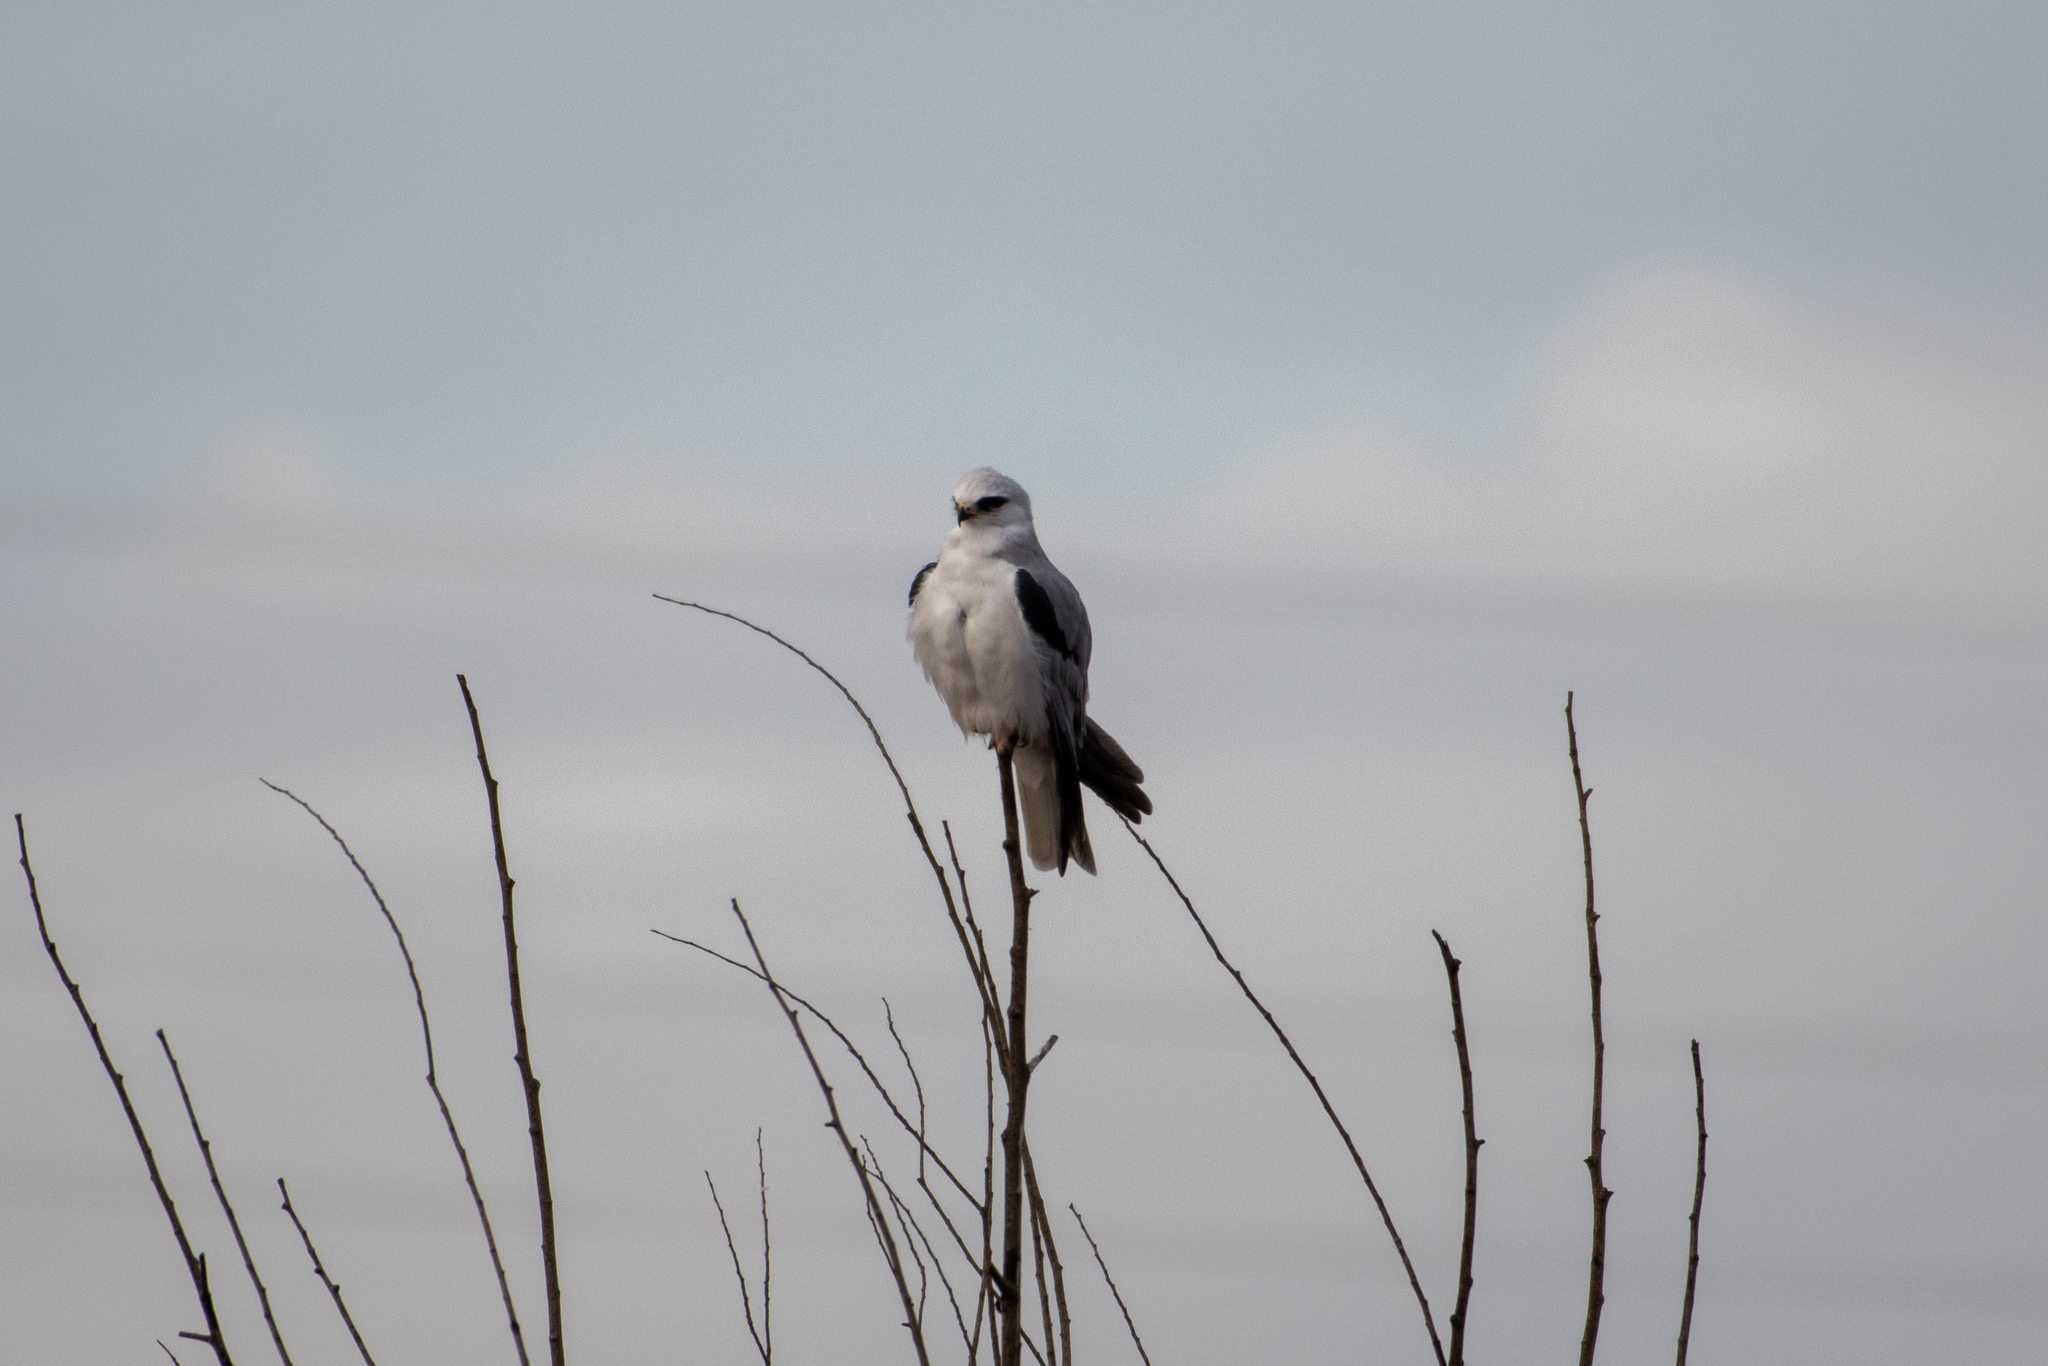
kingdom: Animalia
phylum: Chordata
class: Aves
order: Accipitriformes
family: Accipitridae
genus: Elanus
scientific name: Elanus leucurus
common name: White-tailed kite
